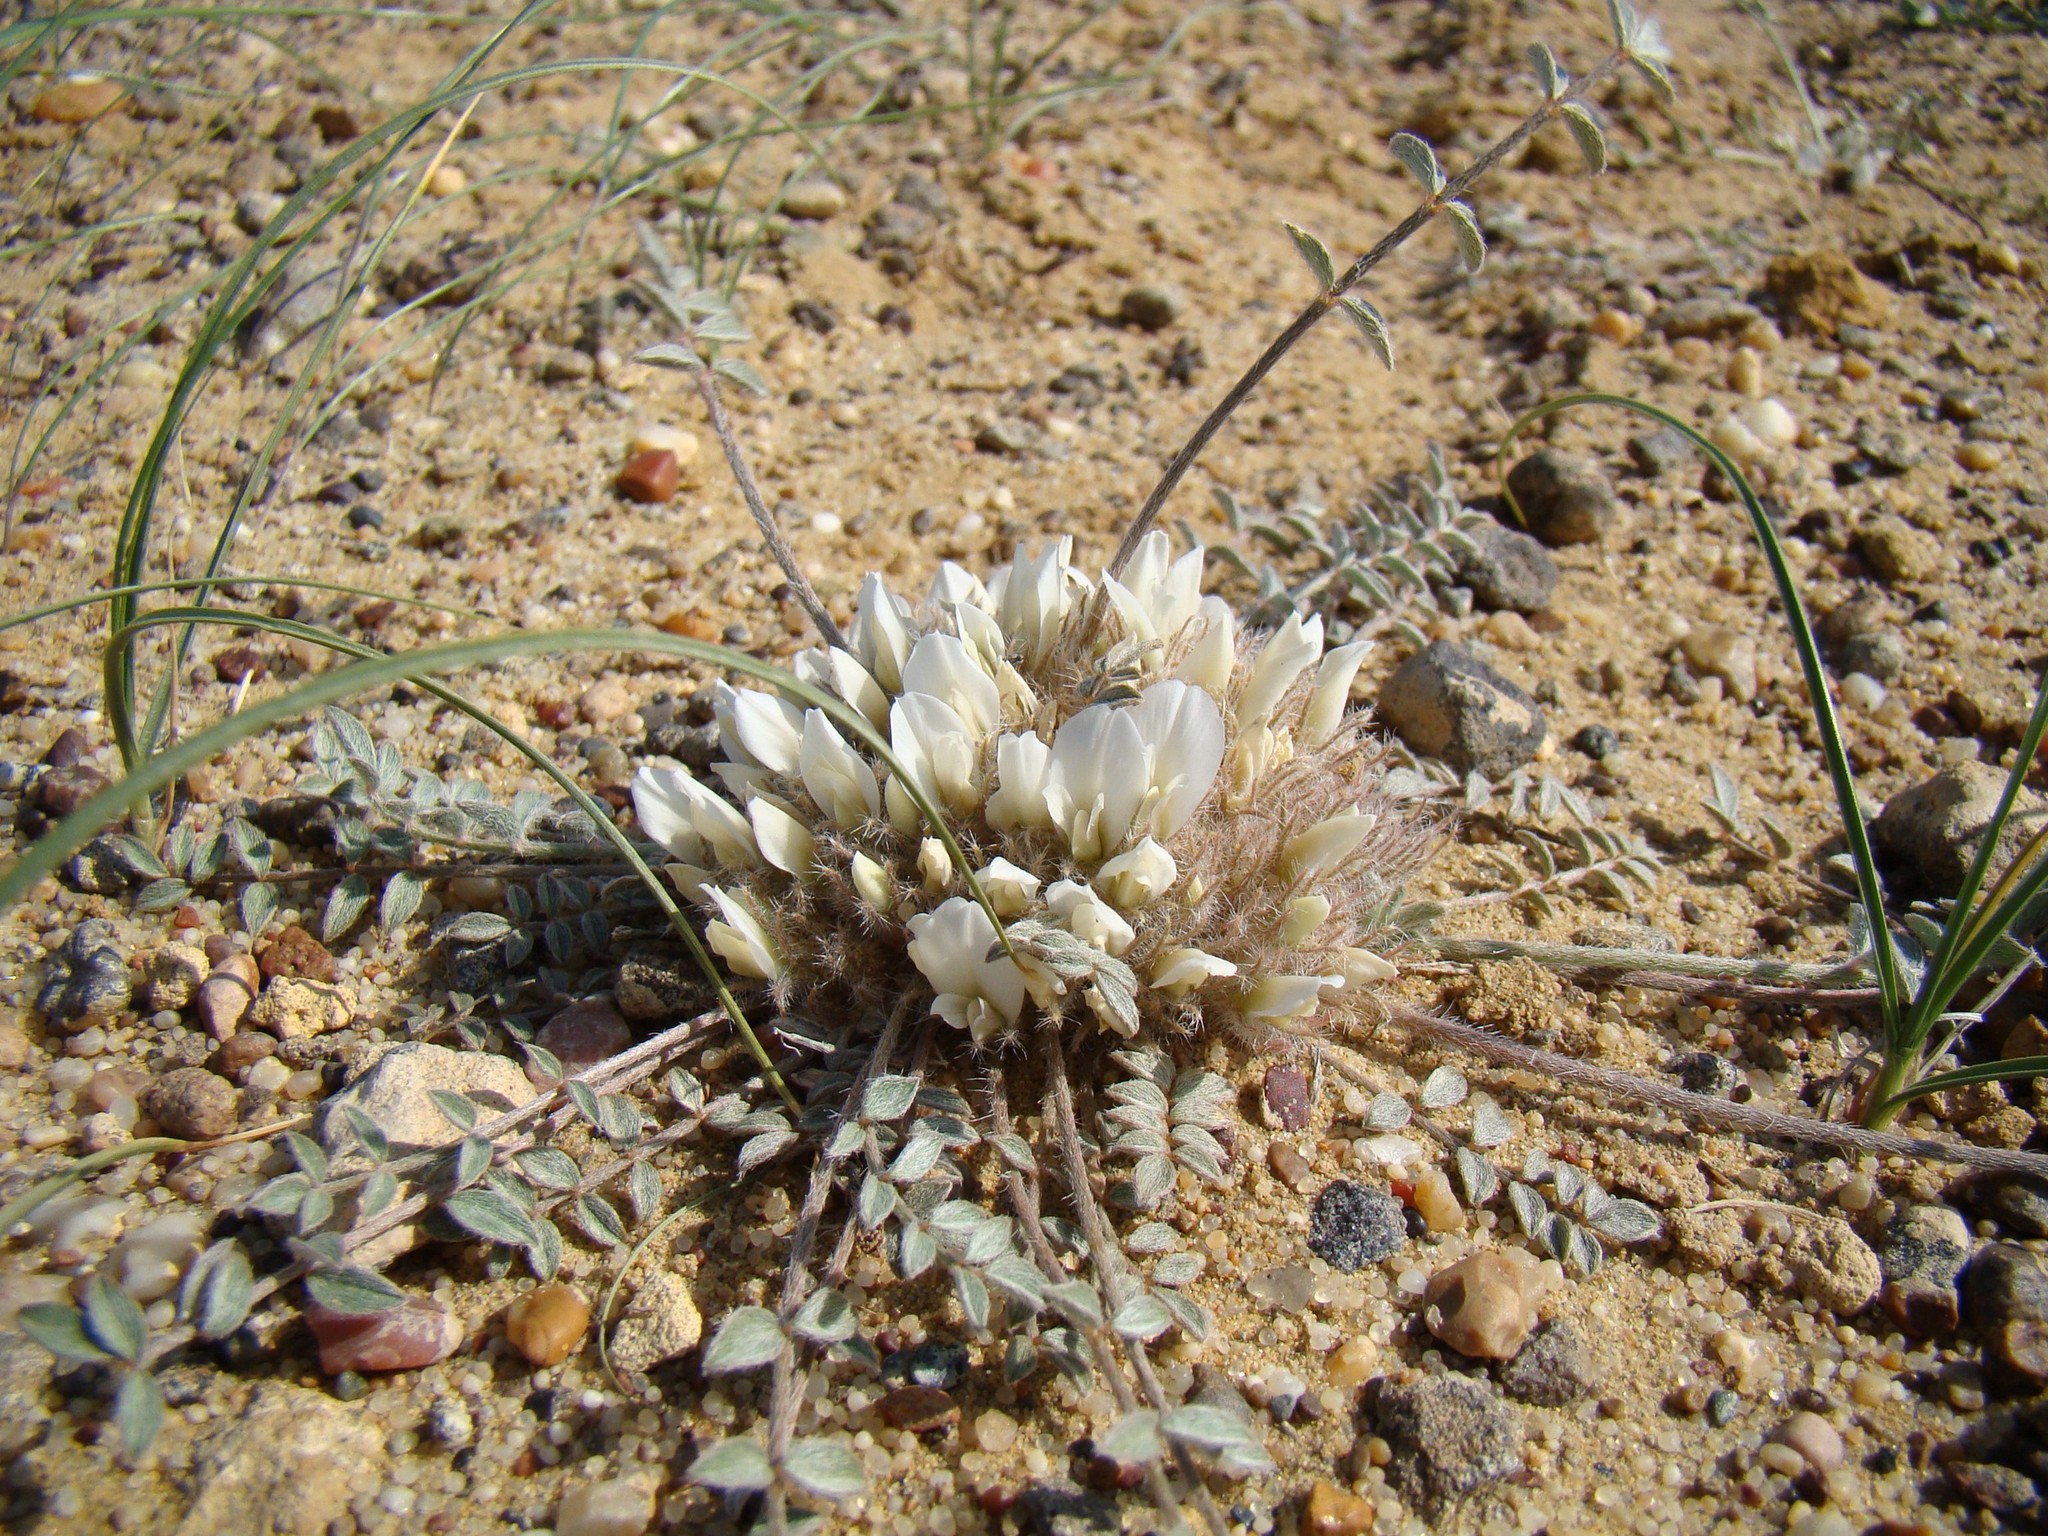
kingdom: Plantae
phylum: Tracheophyta
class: Magnoliopsida
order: Fabales
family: Fabaceae
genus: Astragalus
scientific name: Astragalus scabrisetus
